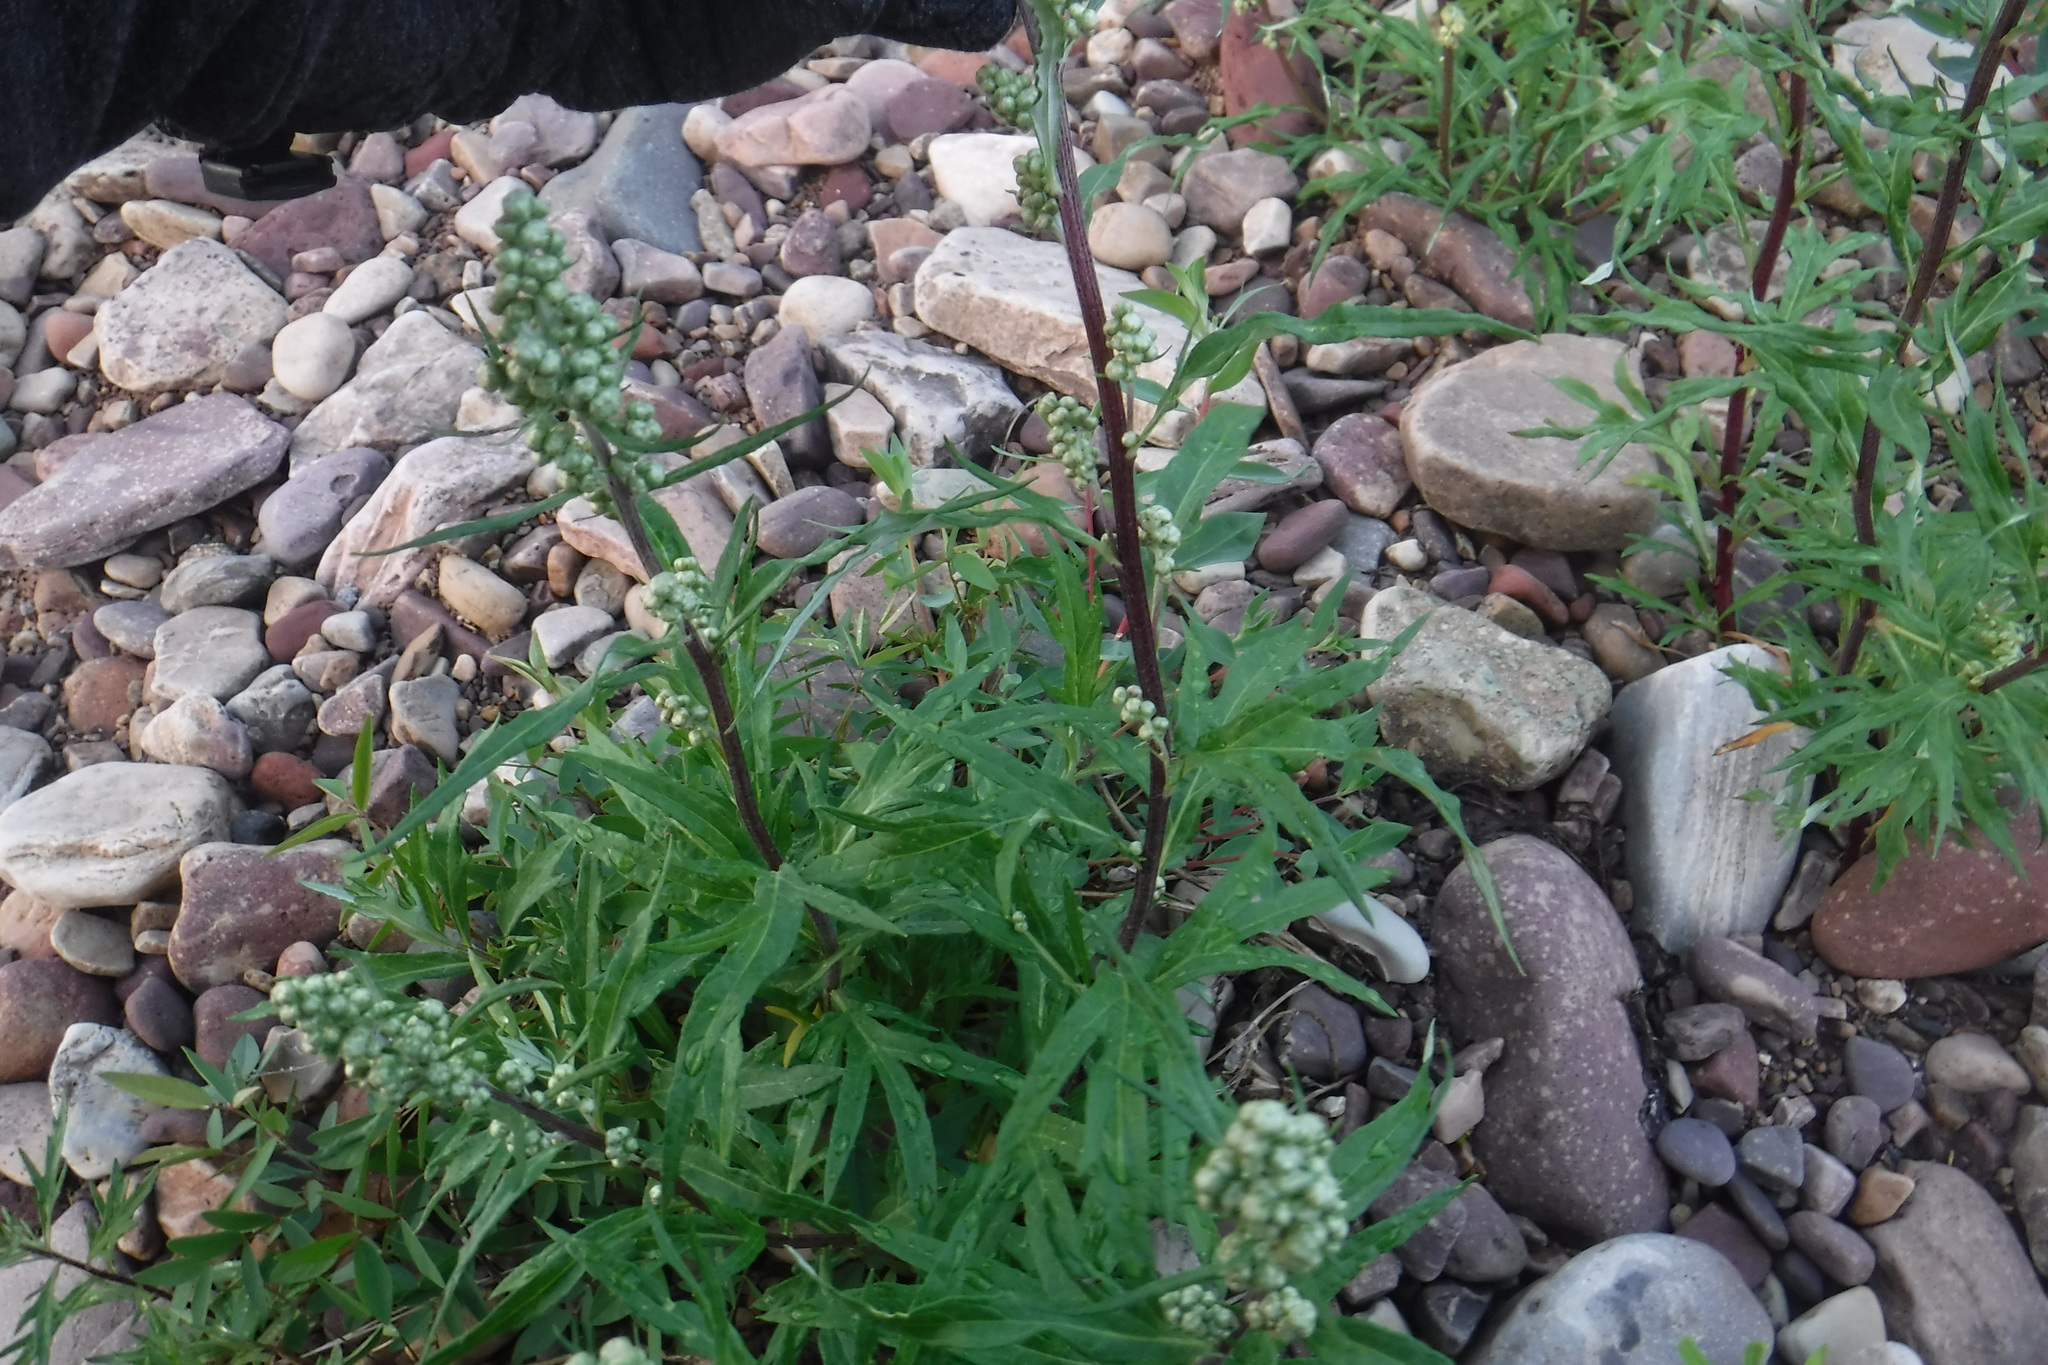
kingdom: Plantae
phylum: Tracheophyta
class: Magnoliopsida
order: Asterales
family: Asteraceae
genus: Artemisia
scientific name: Artemisia tilesii
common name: Aleutian mugwort
